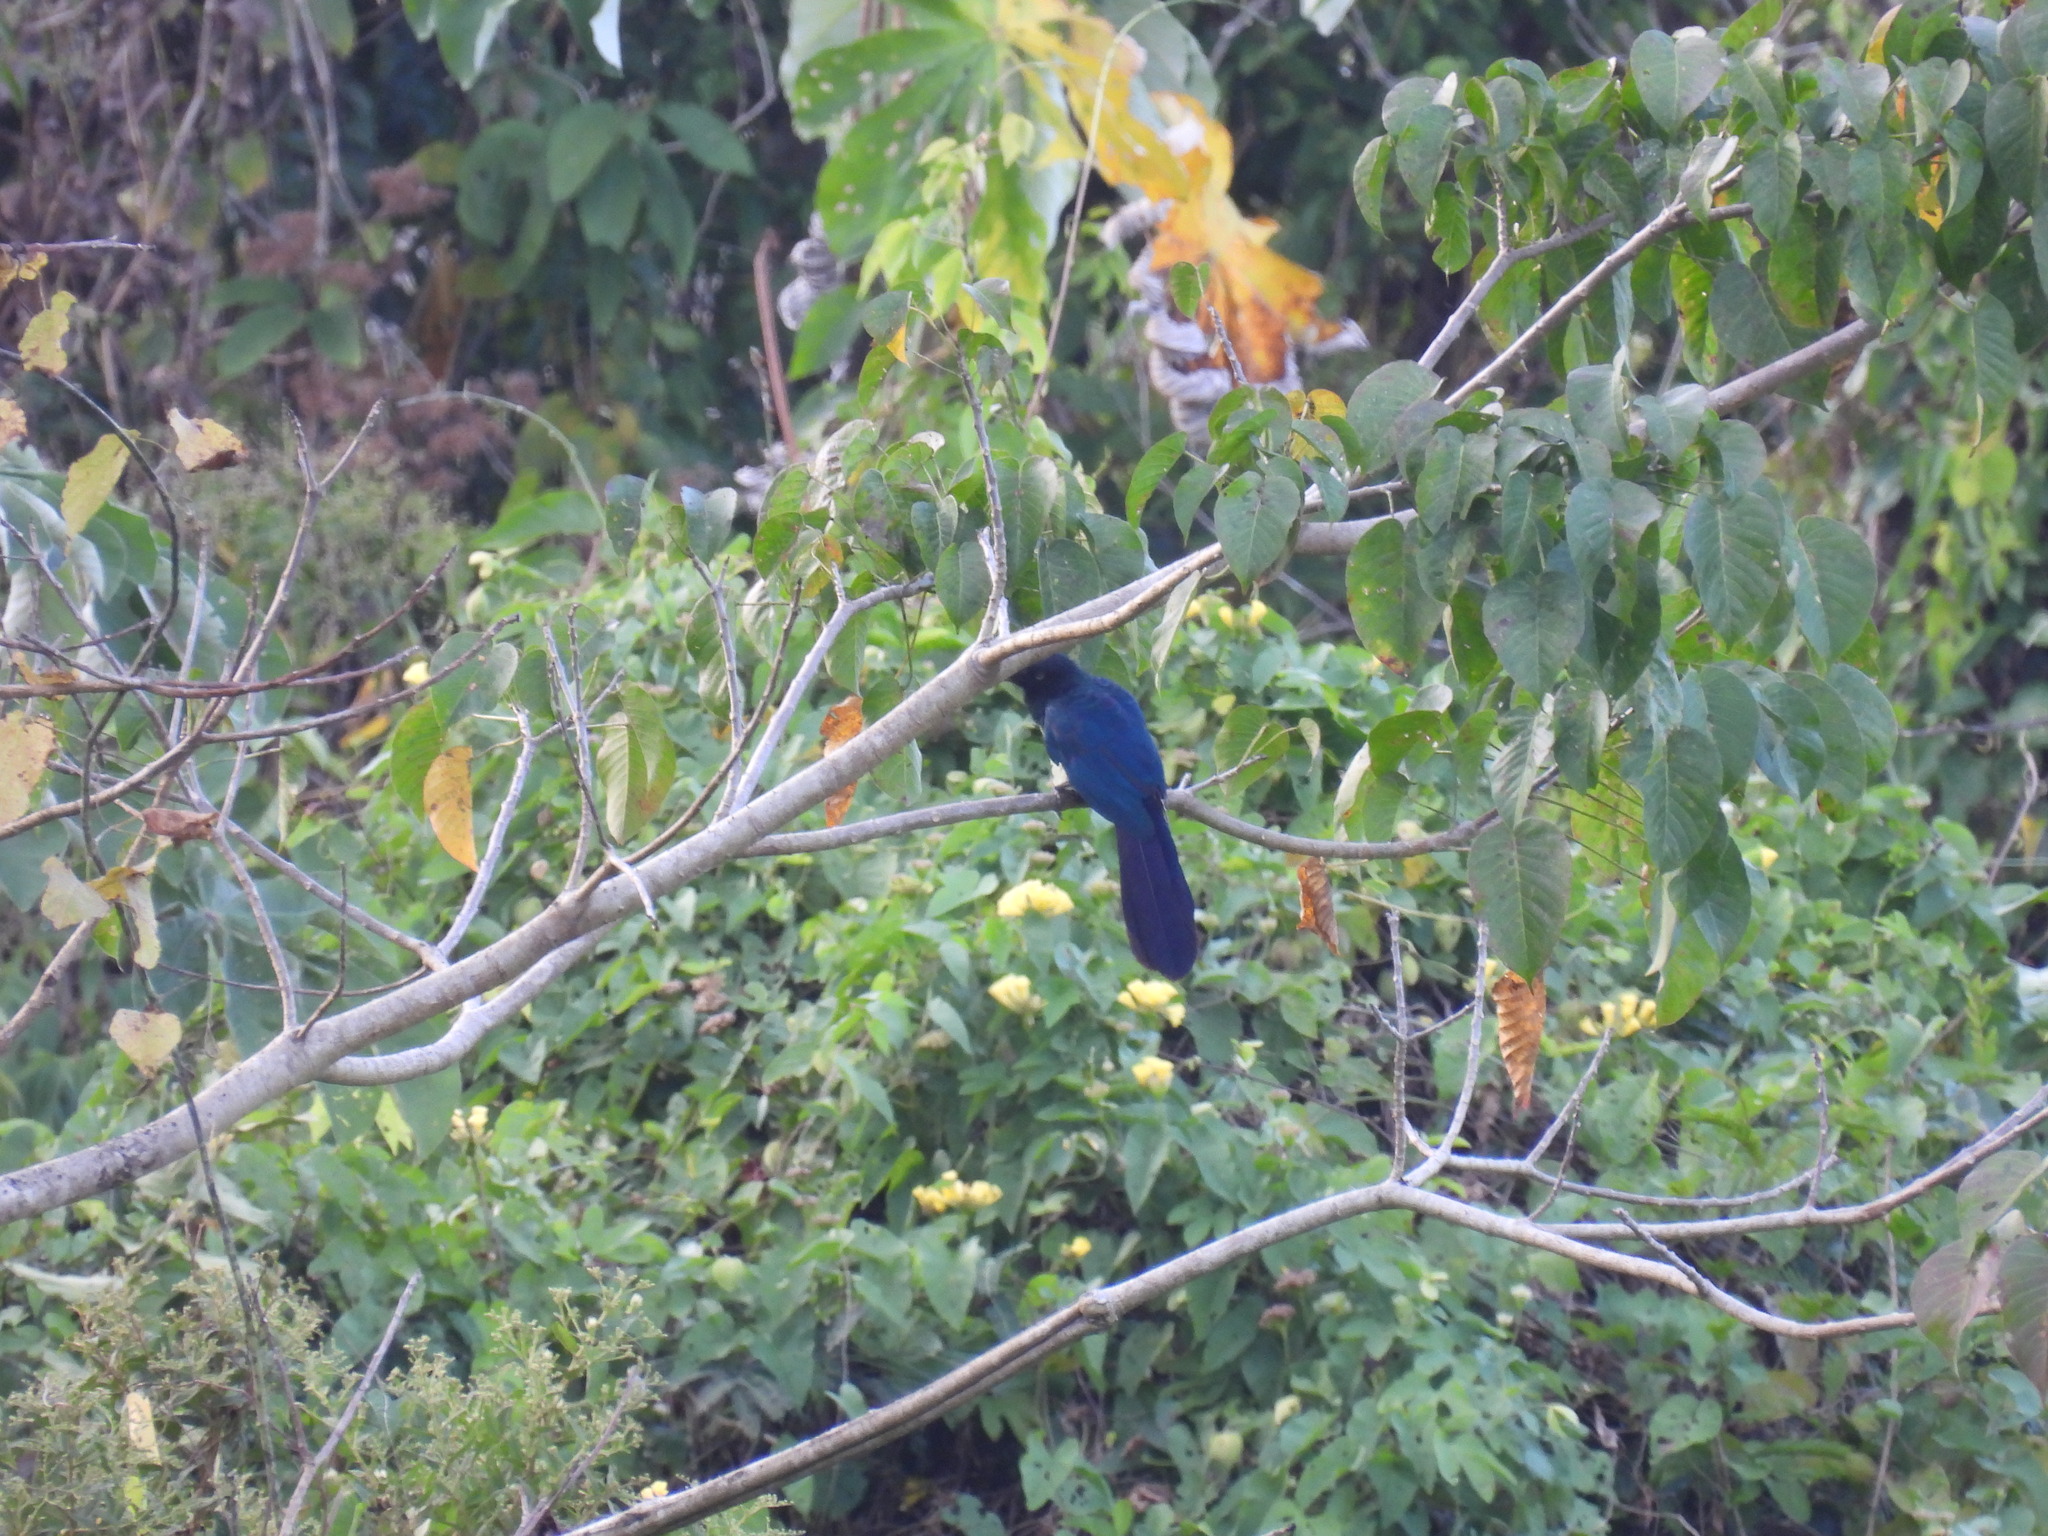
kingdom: Animalia
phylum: Chordata
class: Aves
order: Cuculiformes
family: Cuculidae
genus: Crotophaga
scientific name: Crotophaga major
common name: Greater ani
